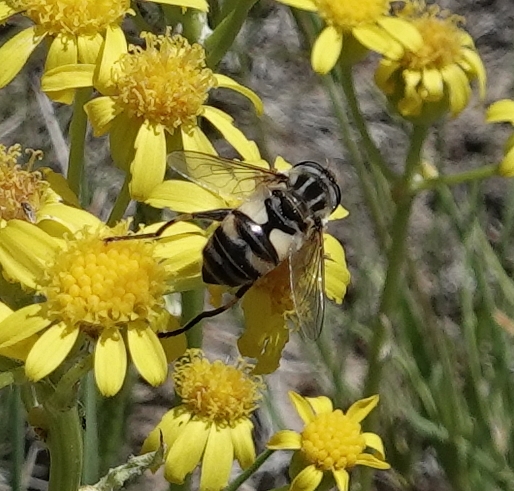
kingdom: Animalia
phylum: Arthropoda
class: Insecta
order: Diptera
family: Syrphidae
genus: Helophilus
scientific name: Helophilus latifrons
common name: Broad-headed marsh fly
